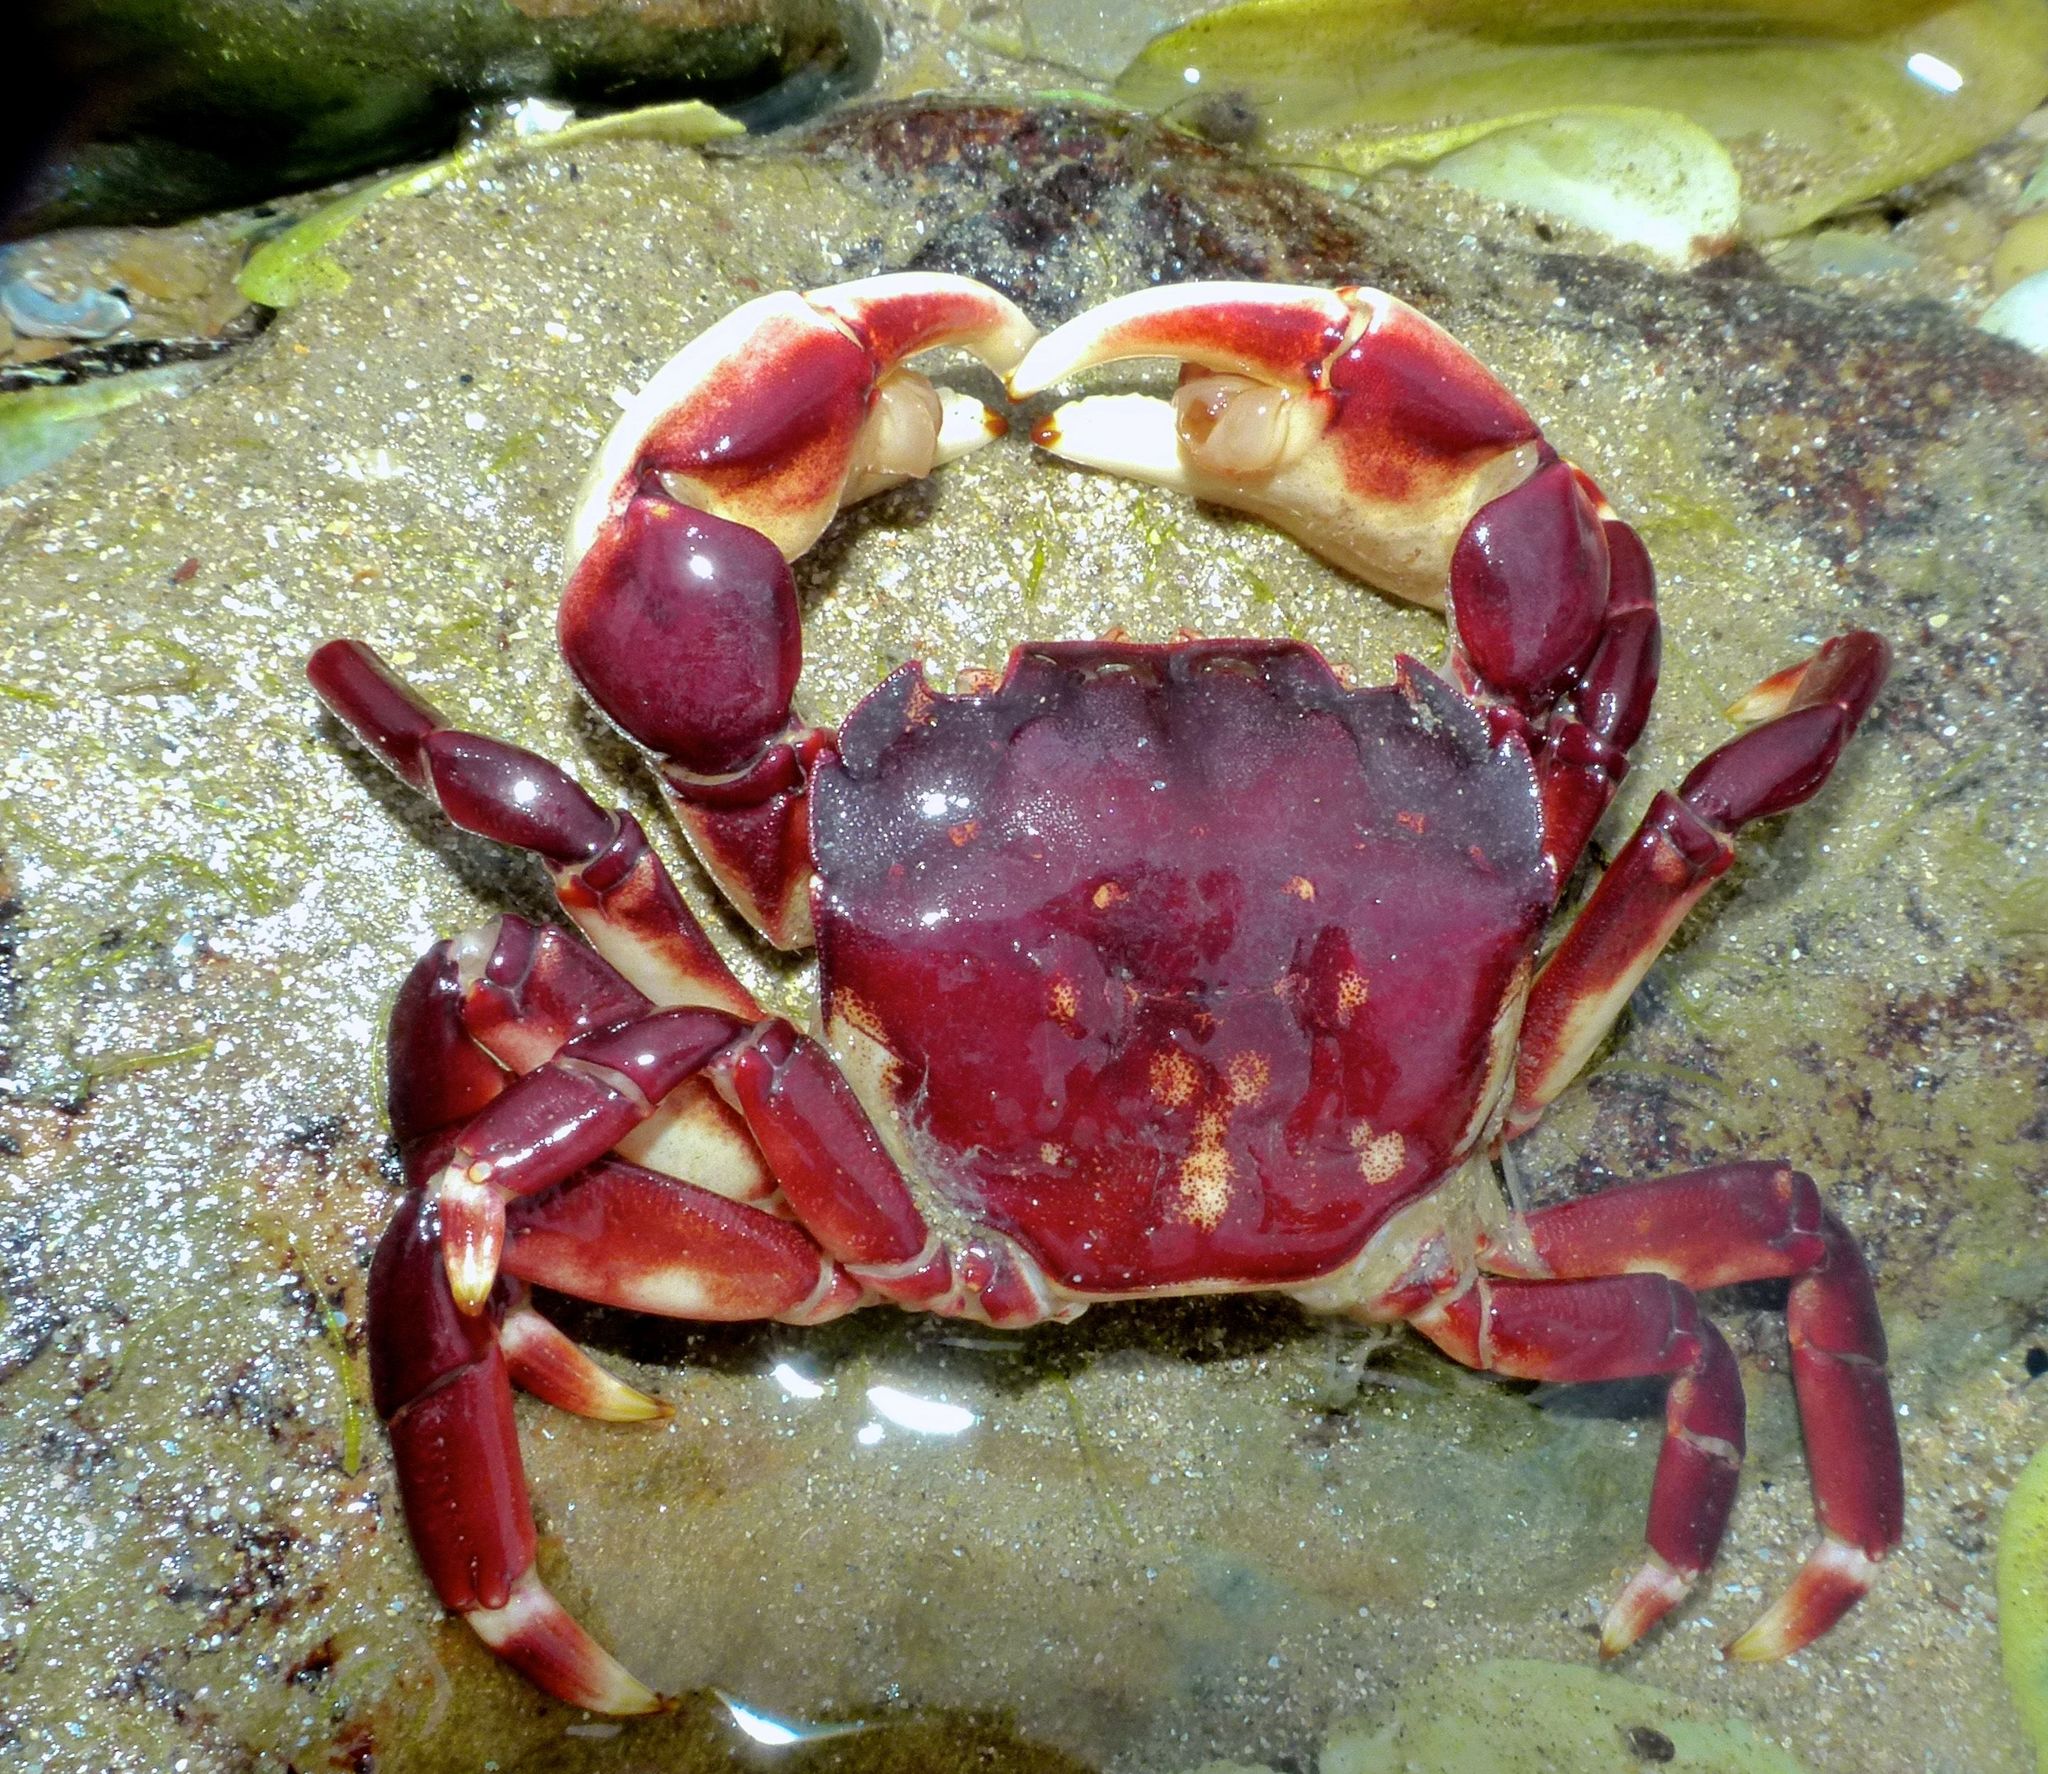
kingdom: Animalia
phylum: Arthropoda
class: Malacostraca
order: Decapoda
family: Varunidae
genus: Hemigrapsus
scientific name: Hemigrapsus sexdentatus
